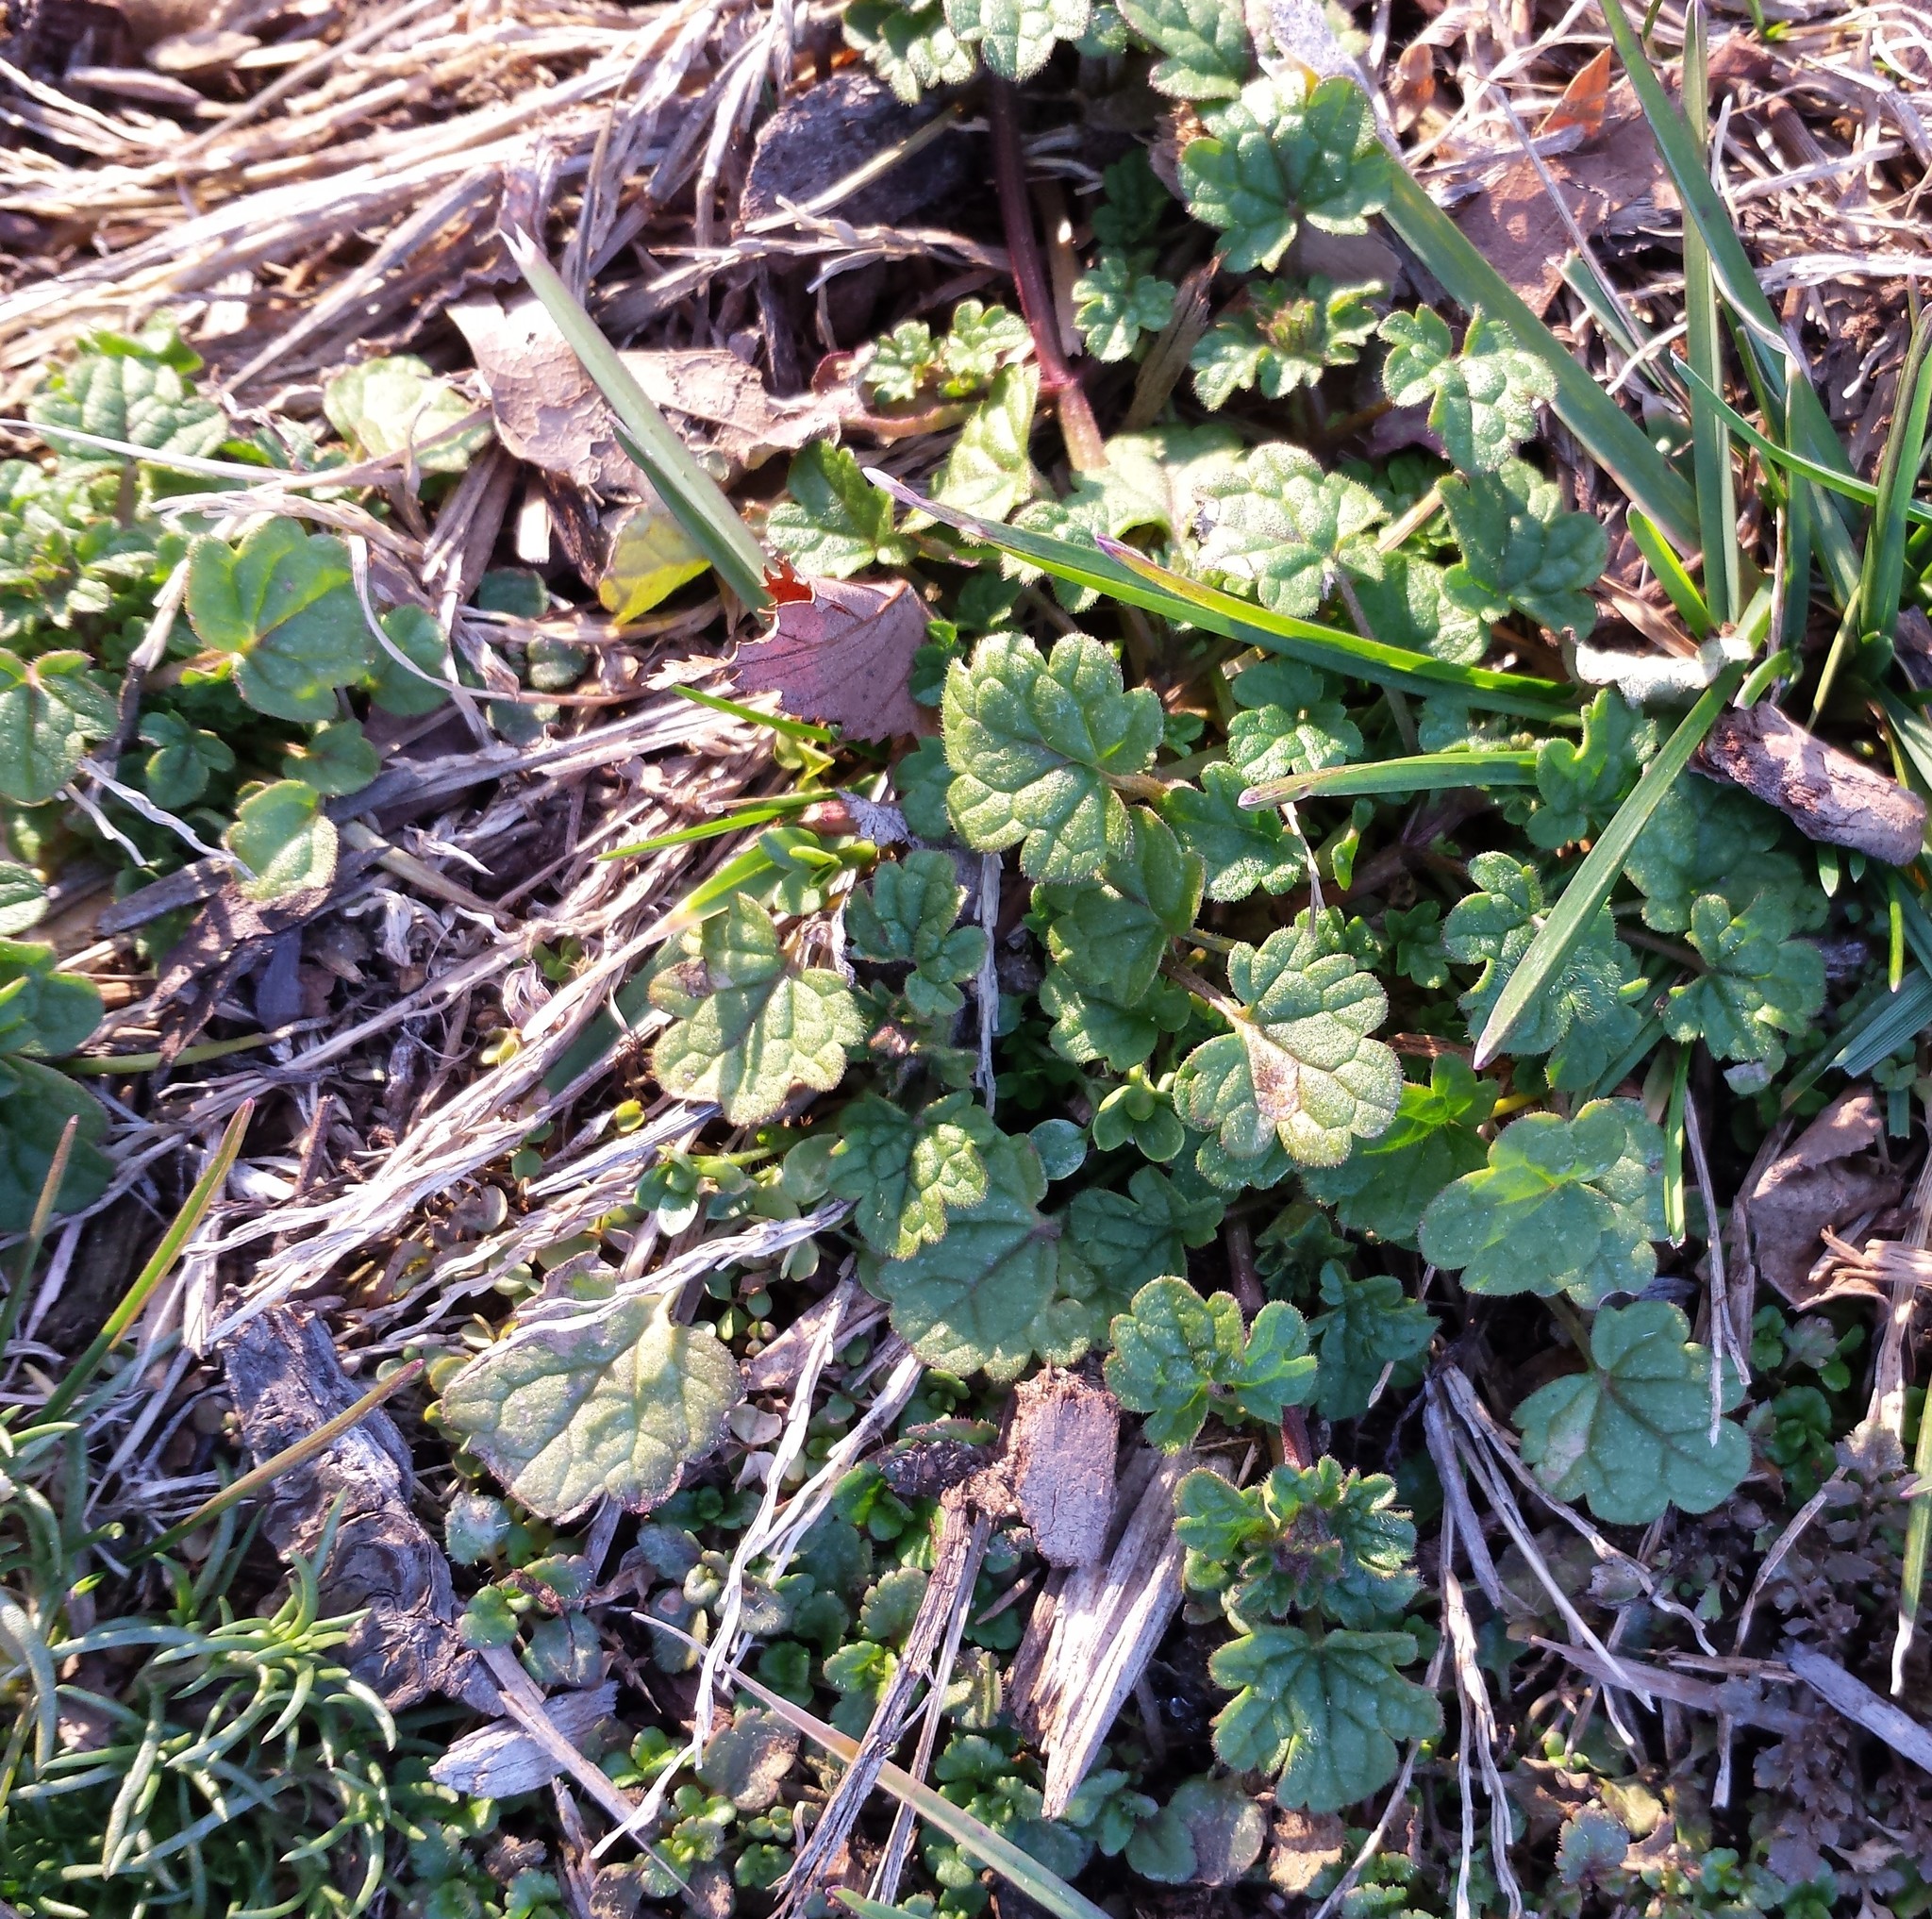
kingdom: Plantae
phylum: Tracheophyta
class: Magnoliopsida
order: Lamiales
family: Lamiaceae
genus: Lamium
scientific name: Lamium amplexicaule
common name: Henbit dead-nettle
